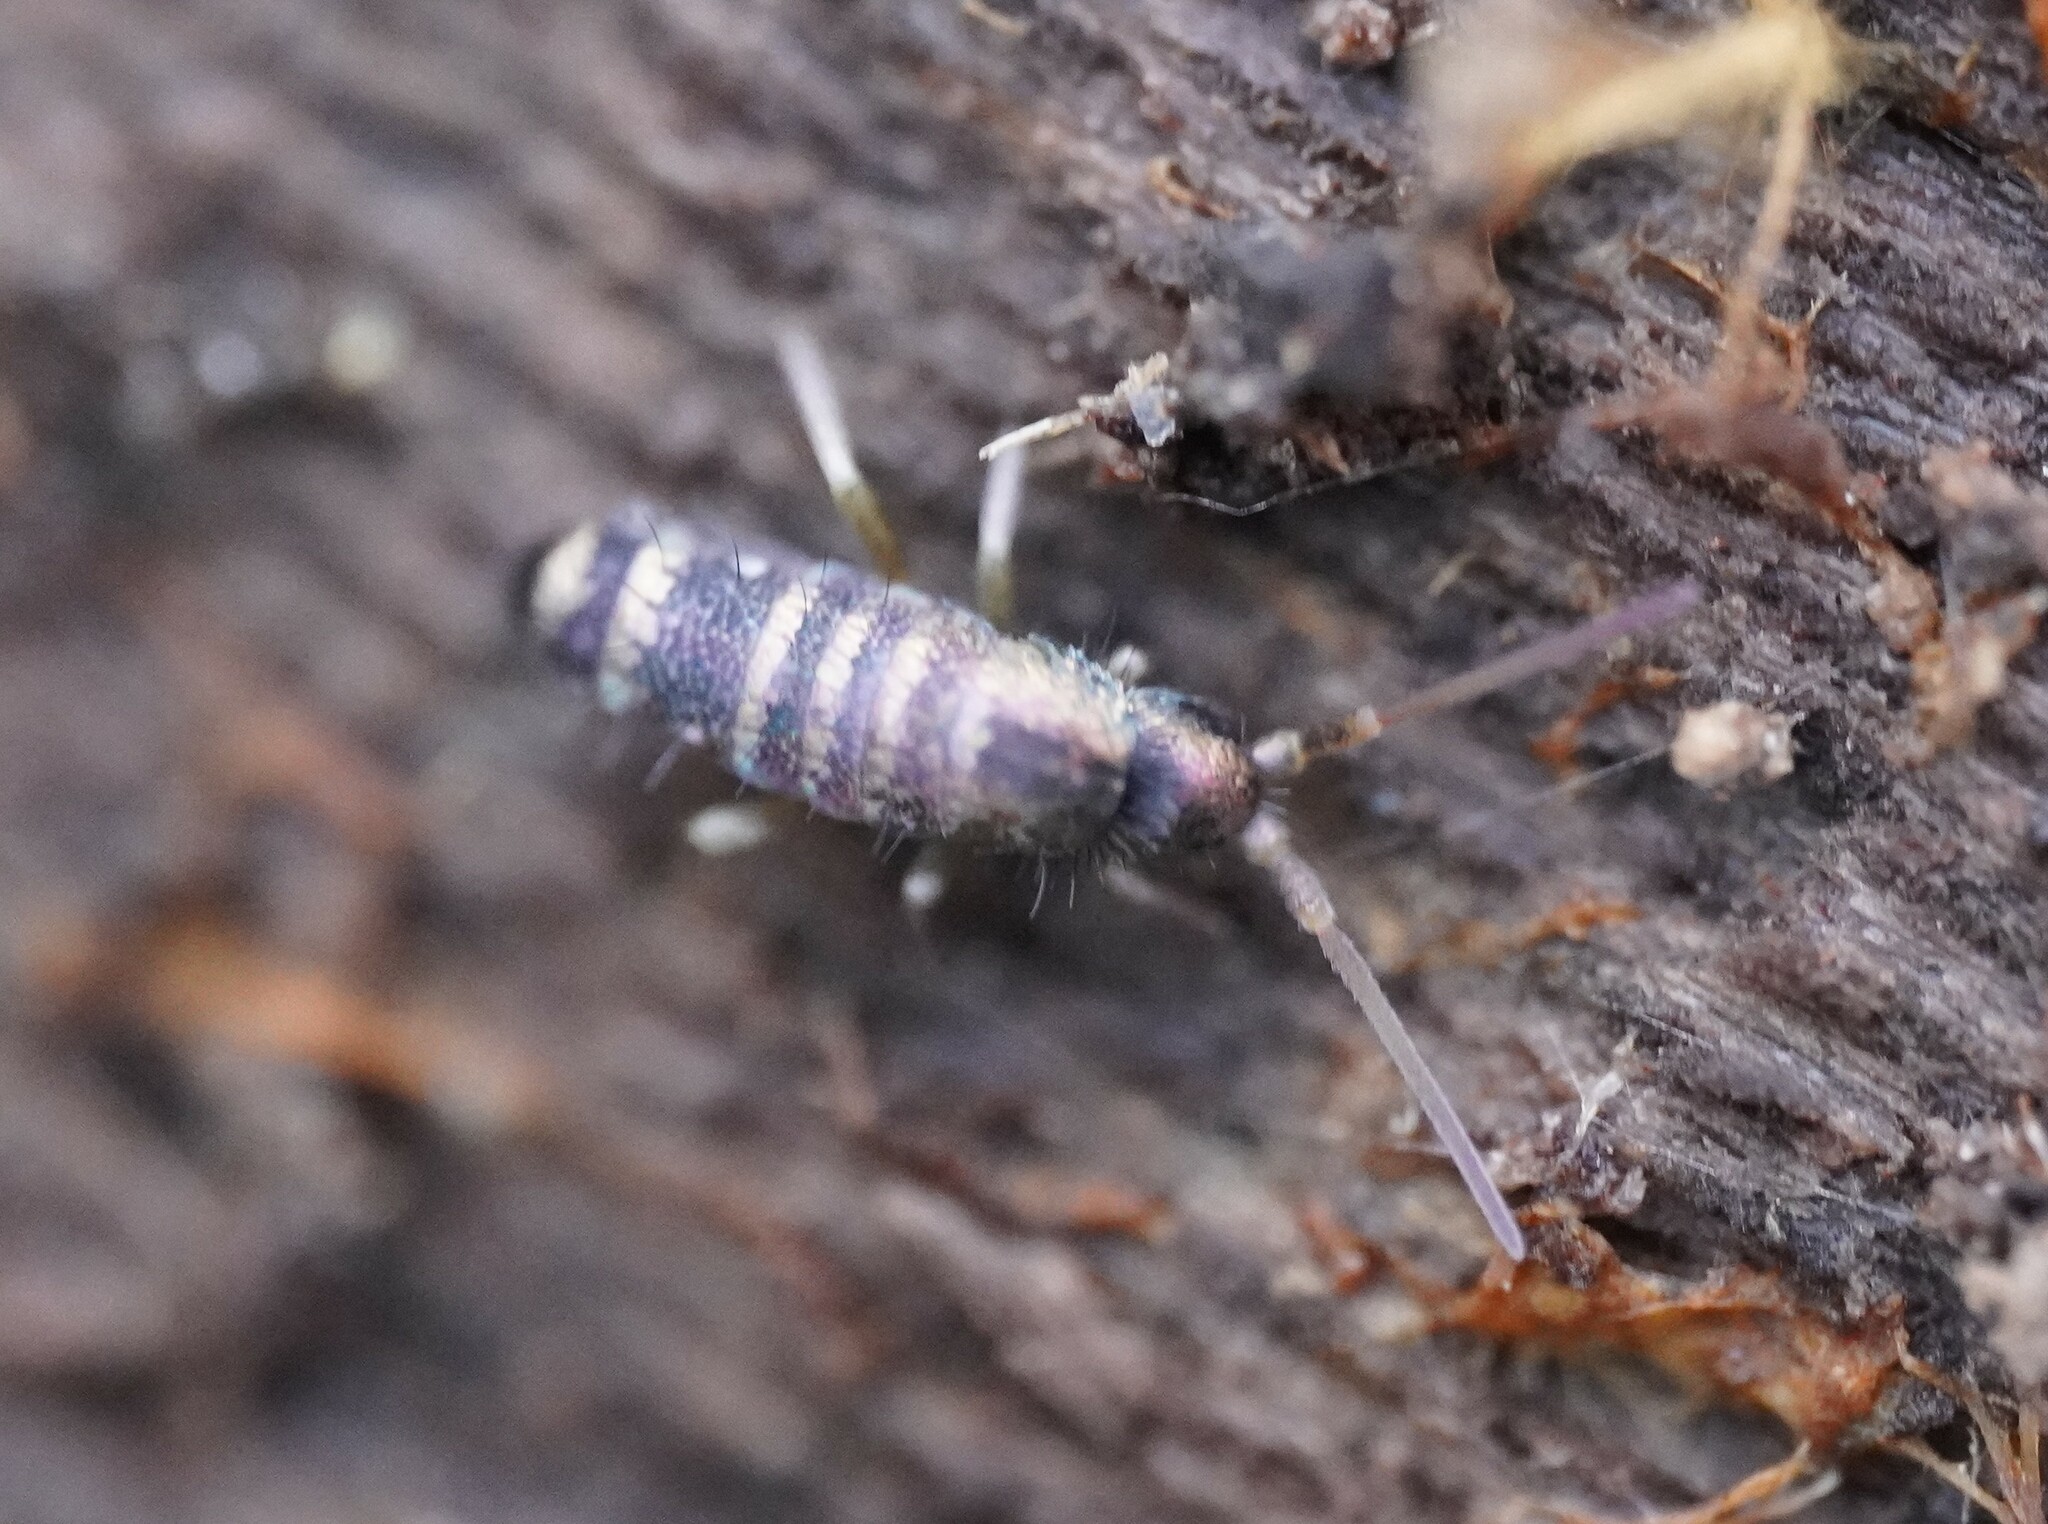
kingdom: Animalia
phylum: Arthropoda
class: Collembola
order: Entomobryomorpha
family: Tomoceridae
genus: Tomocerus
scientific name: Tomocerus vulgaris
